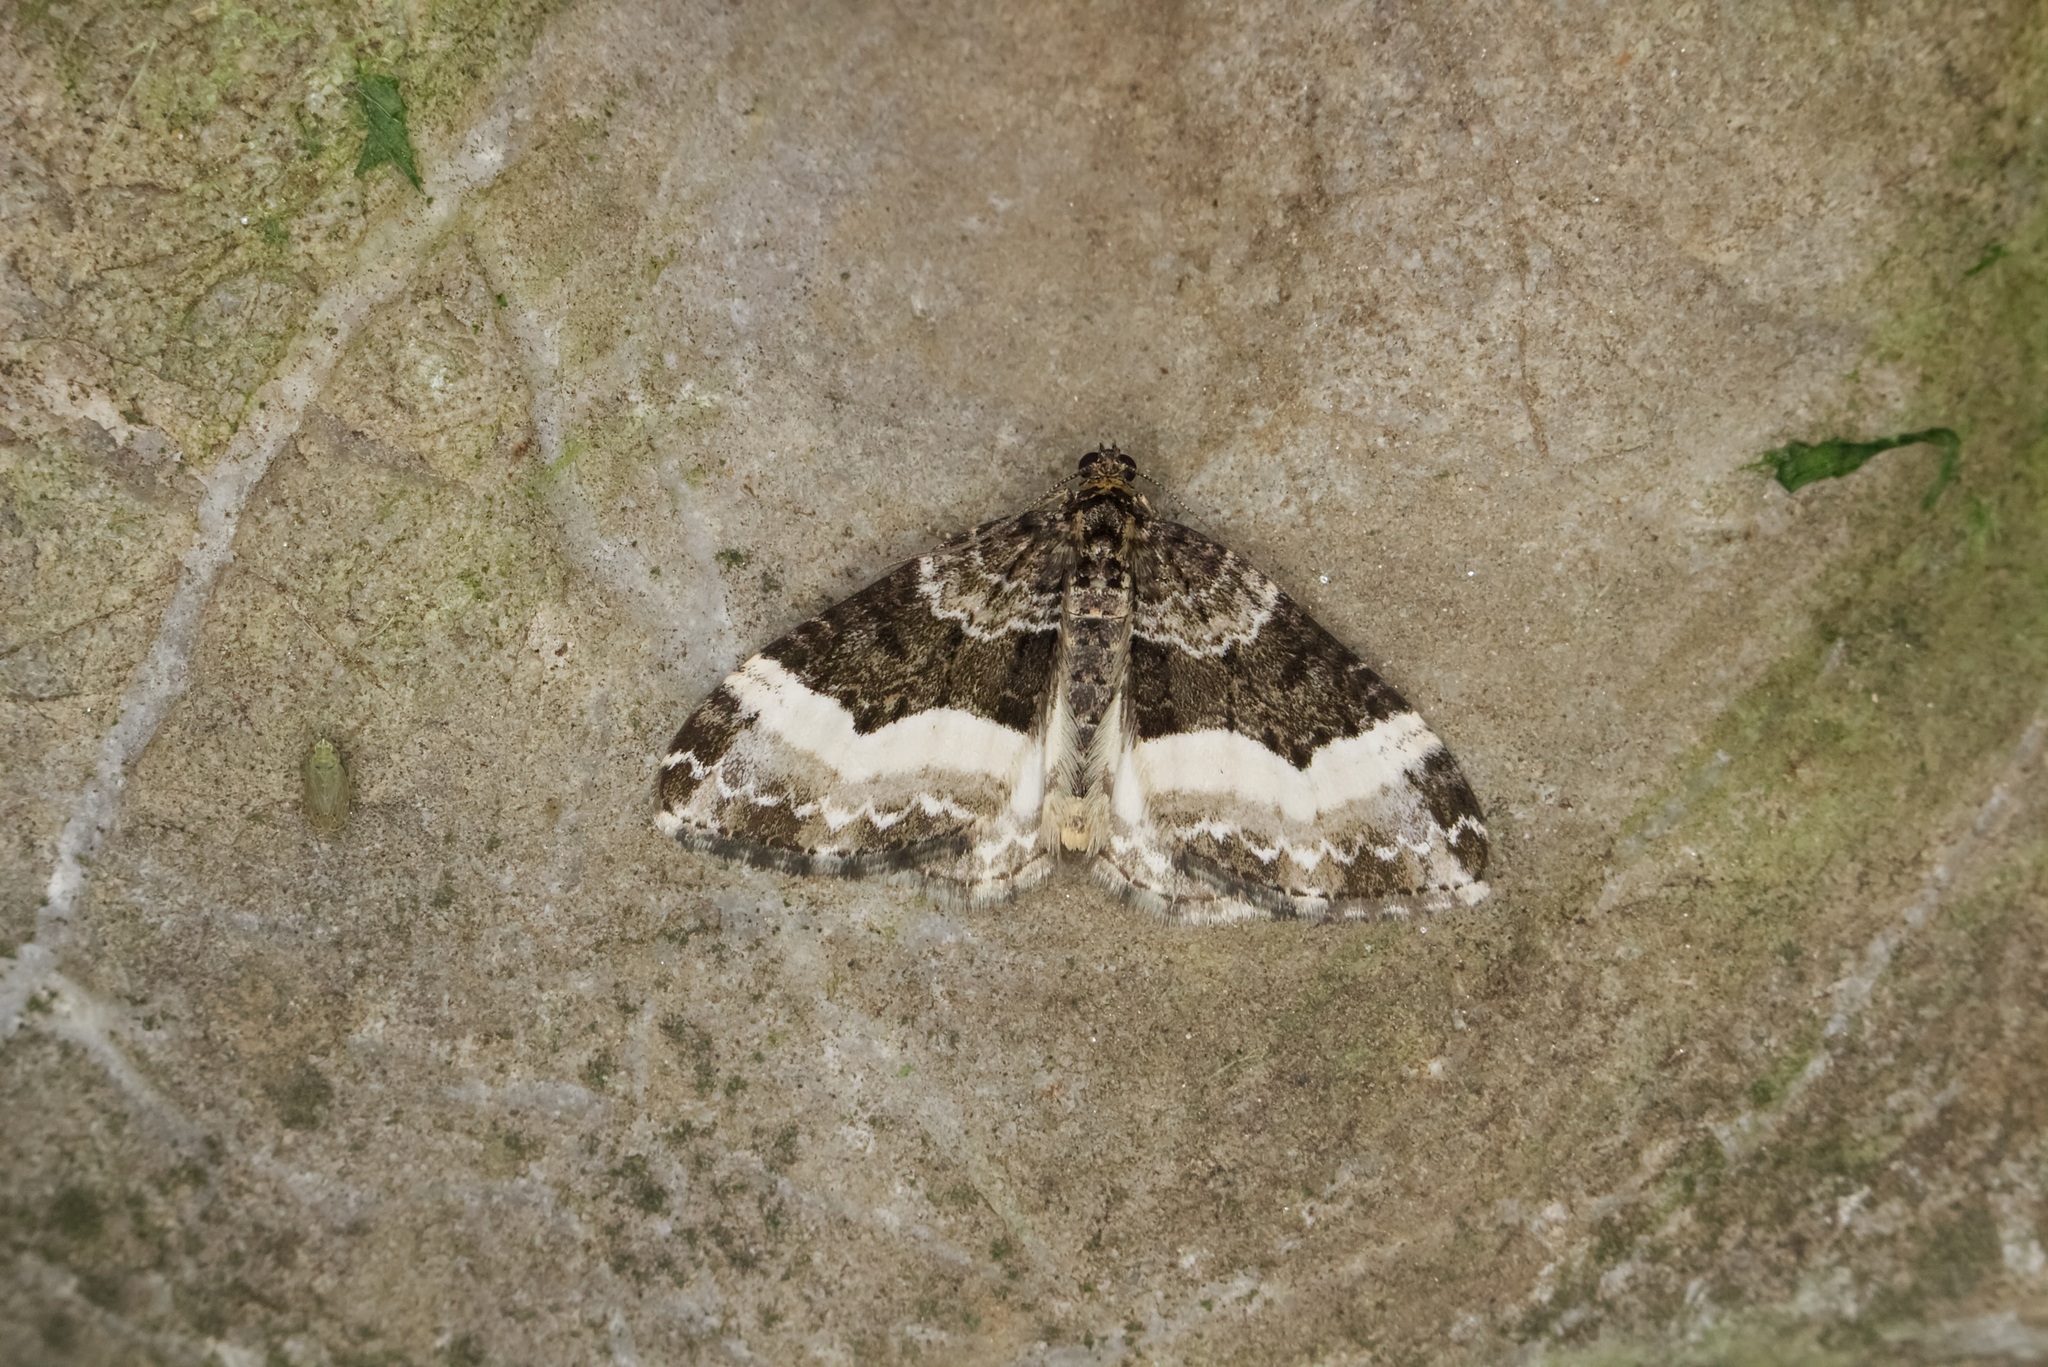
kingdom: Animalia
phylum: Arthropoda
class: Insecta
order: Lepidoptera
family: Geometridae
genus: Euphyia
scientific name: Euphyia unangulata
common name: Sharp-angled carpet
